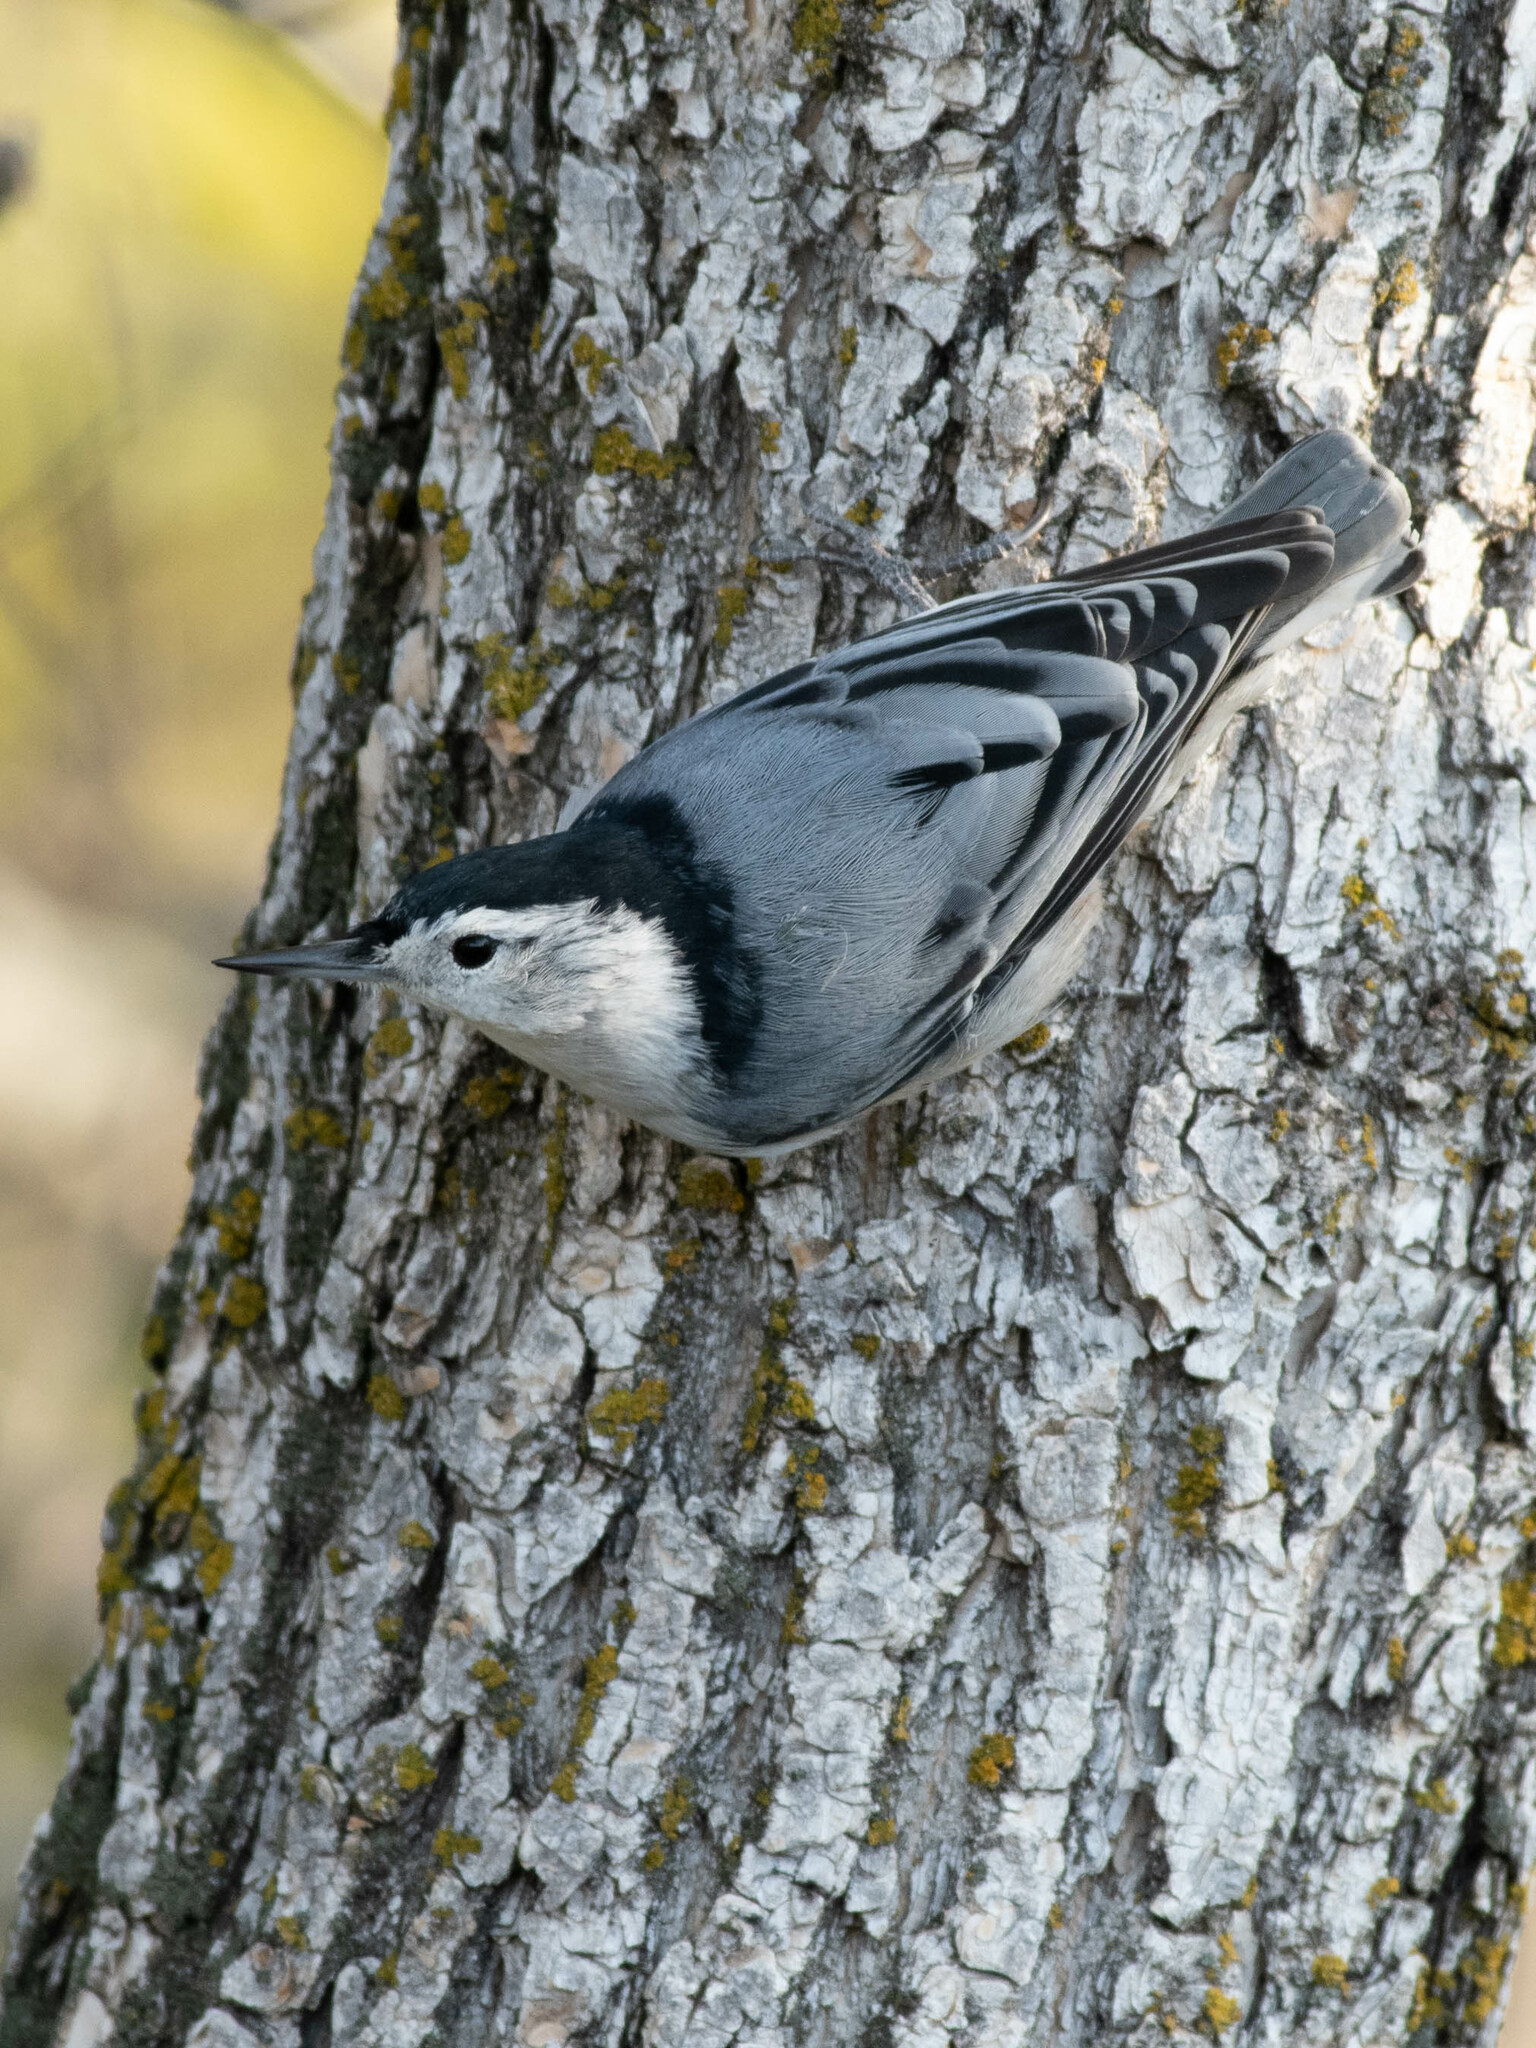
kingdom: Animalia
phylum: Chordata
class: Aves
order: Passeriformes
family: Sittidae
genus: Sitta
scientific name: Sitta carolinensis
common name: White-breasted nuthatch
